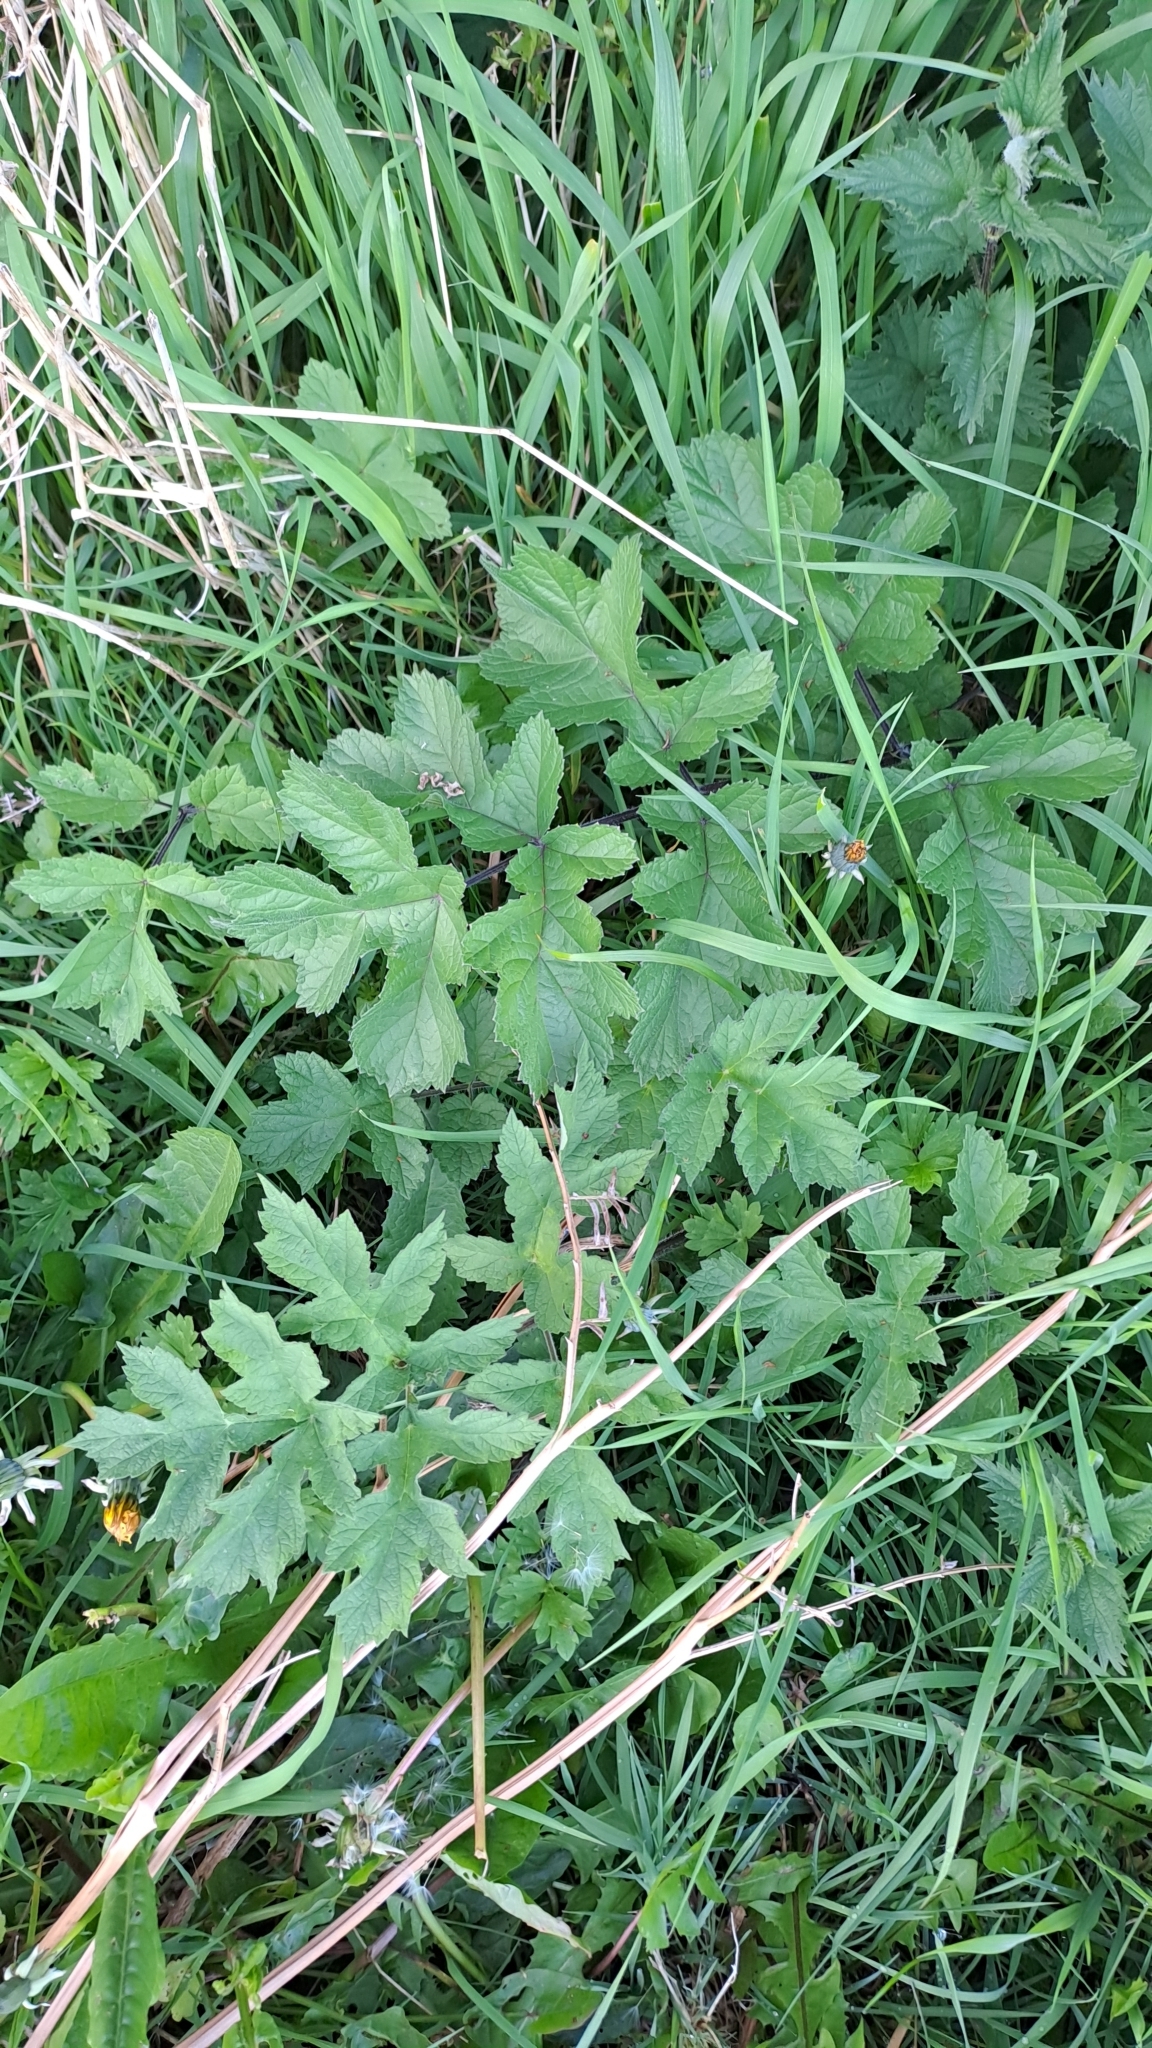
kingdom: Plantae
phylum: Tracheophyta
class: Magnoliopsida
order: Apiales
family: Apiaceae
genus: Heracleum
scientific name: Heracleum sphondylium
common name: Hogweed
